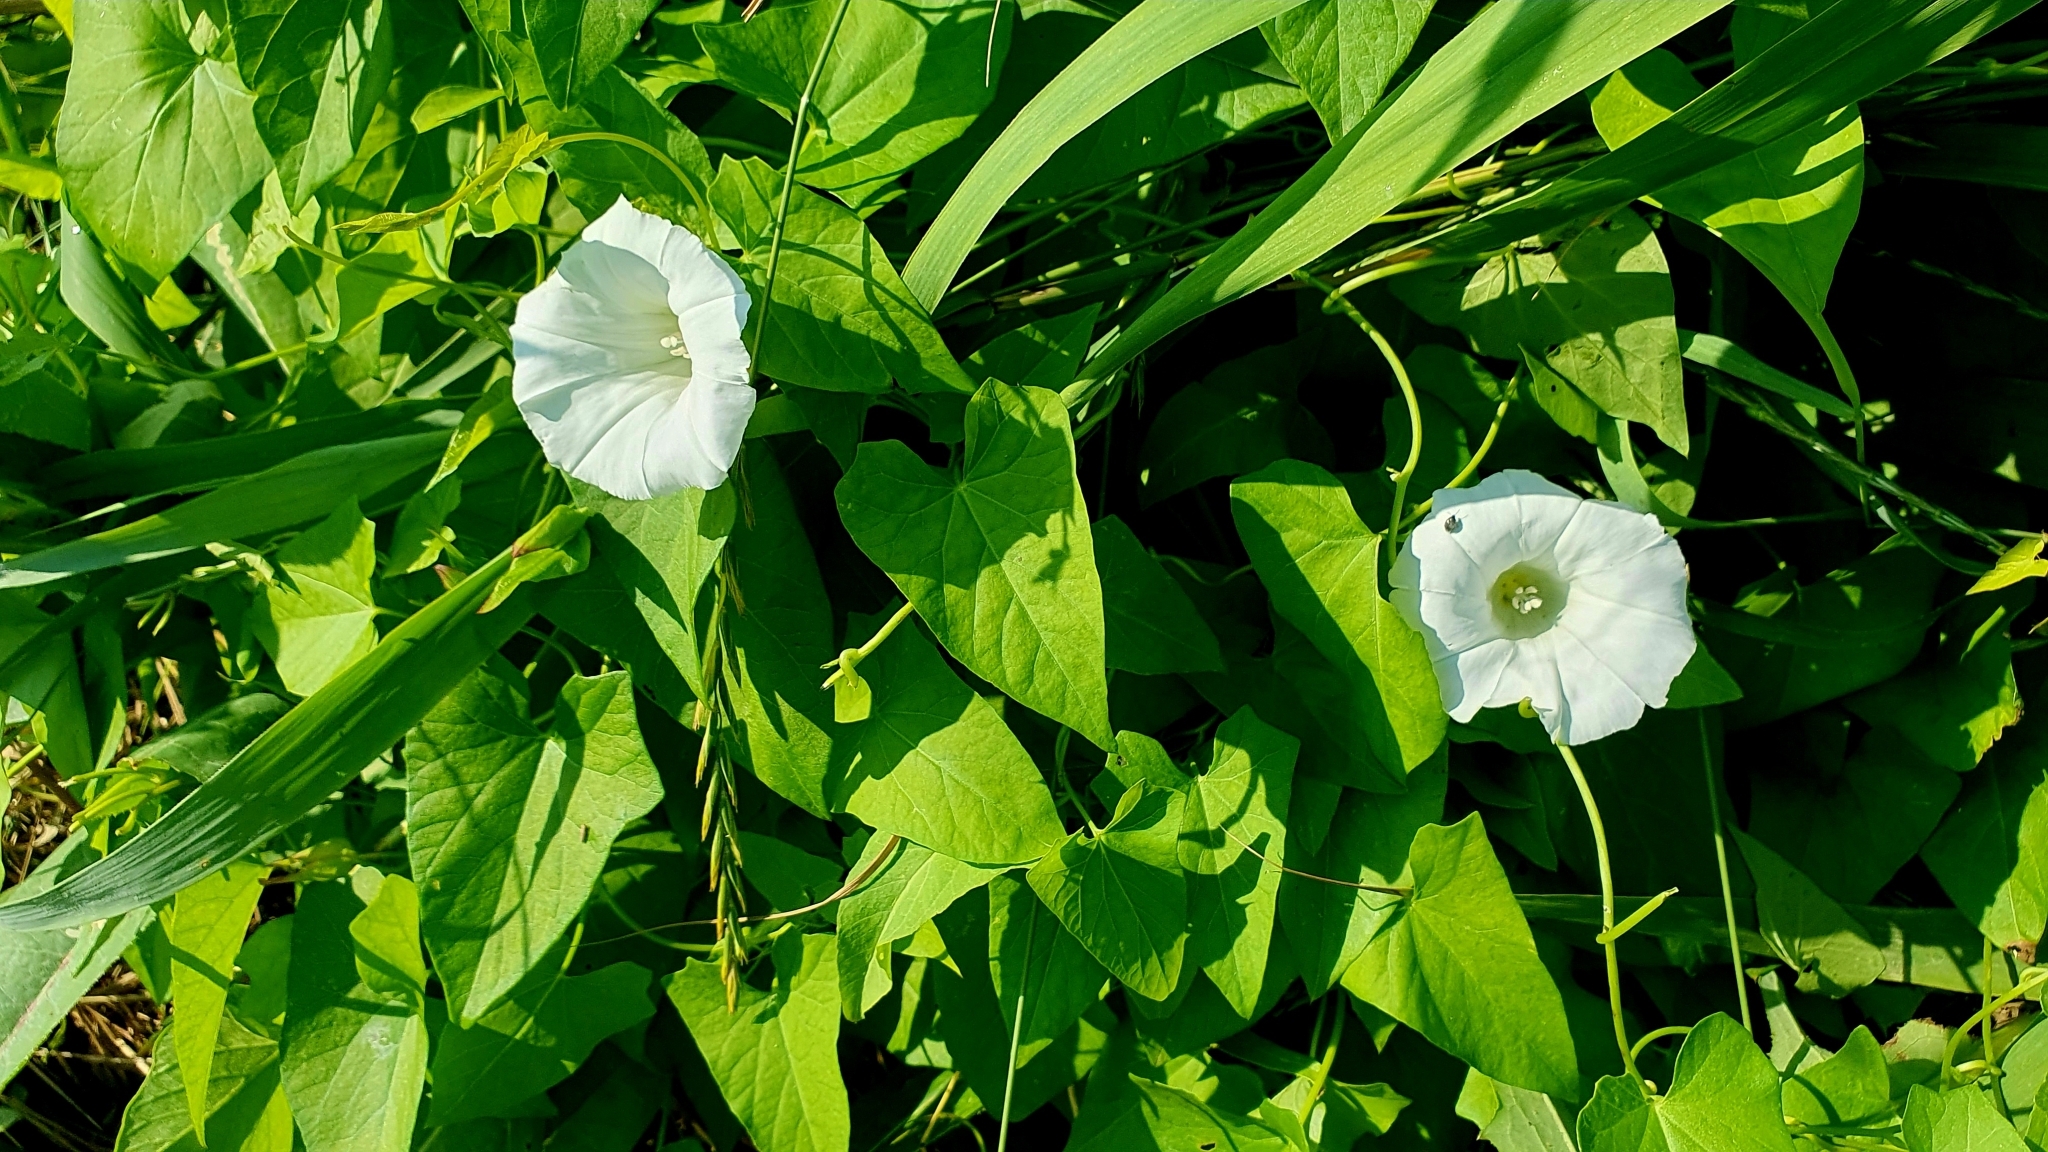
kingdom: Plantae
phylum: Tracheophyta
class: Magnoliopsida
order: Solanales
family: Convolvulaceae
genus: Calystegia
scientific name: Calystegia sepium
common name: Hedge bindweed
